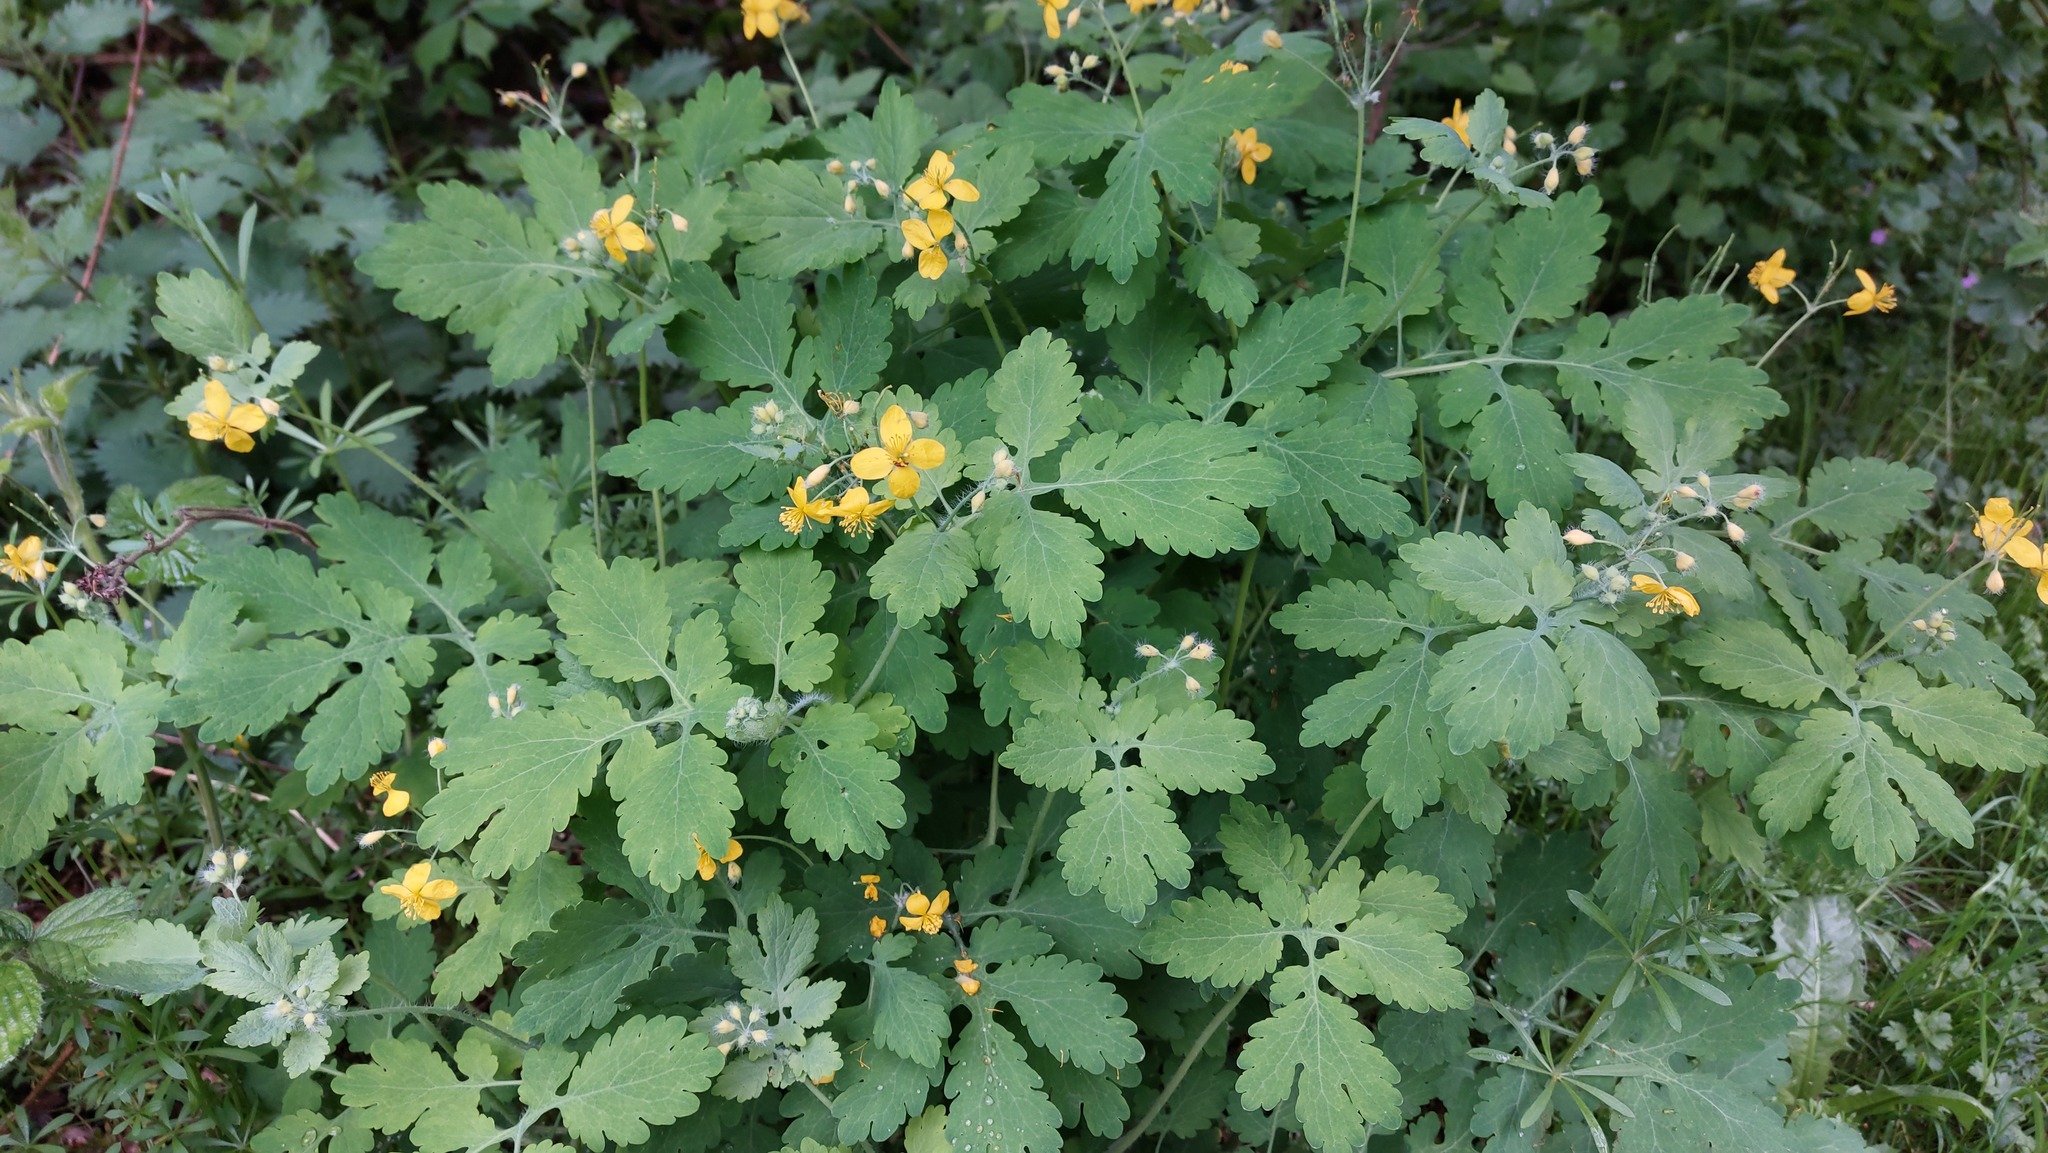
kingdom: Plantae
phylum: Tracheophyta
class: Magnoliopsida
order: Ranunculales
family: Papaveraceae
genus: Chelidonium
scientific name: Chelidonium majus
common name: Greater celandine
